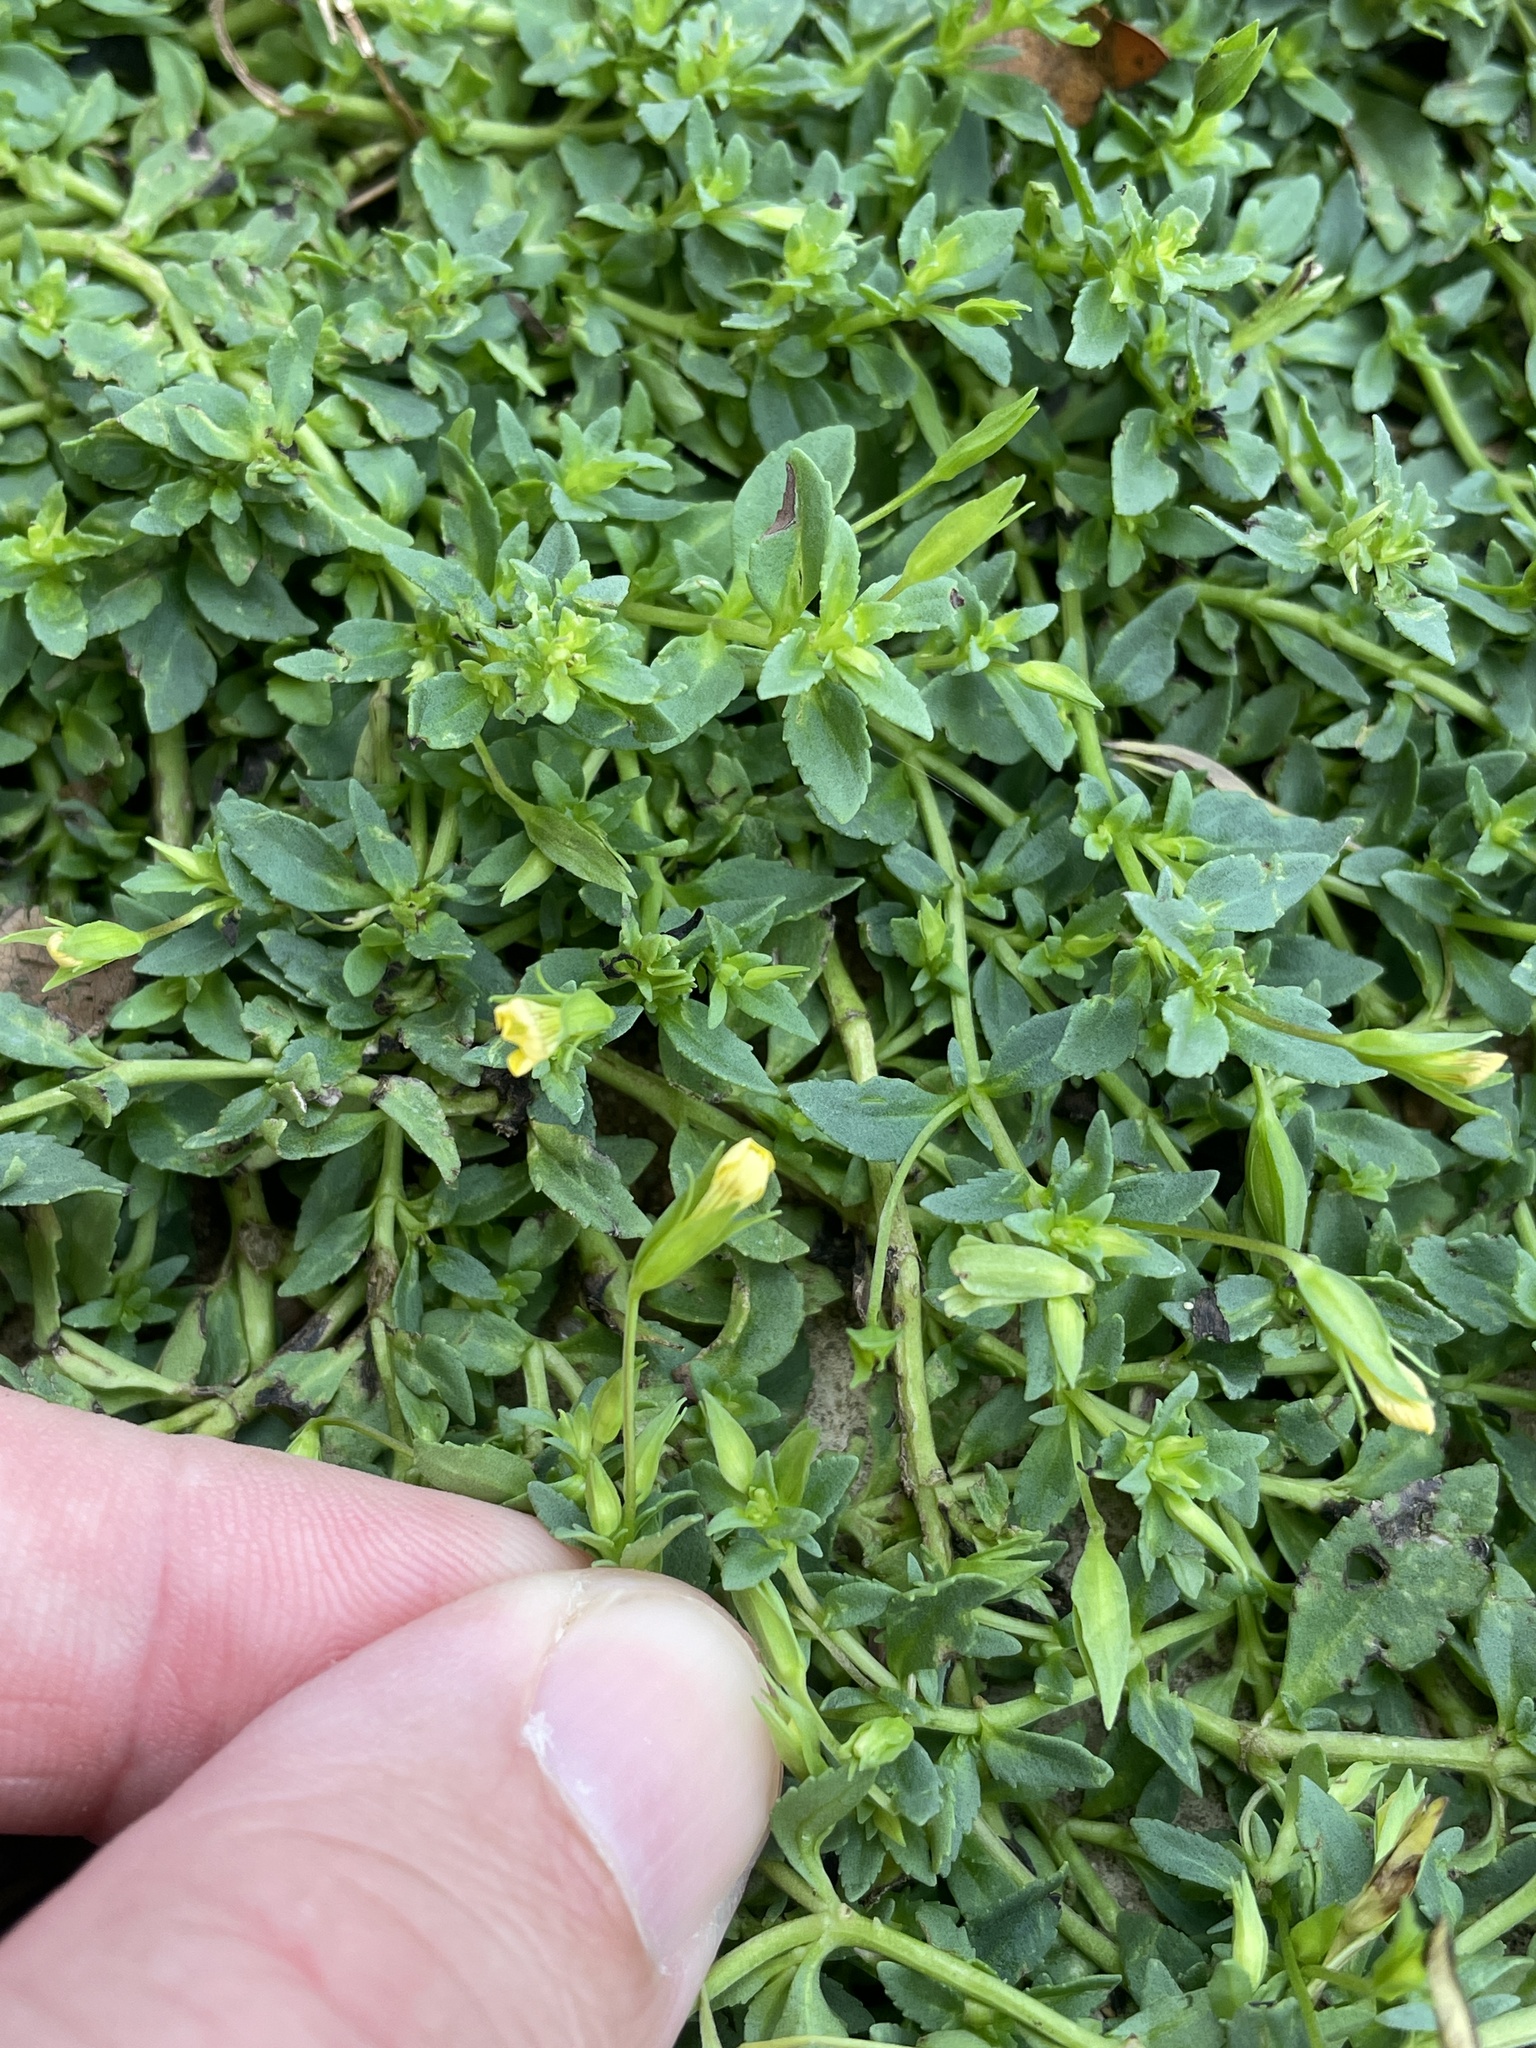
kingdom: Plantae
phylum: Tracheophyta
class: Magnoliopsida
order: Lamiales
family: Plantaginaceae
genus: Mecardonia
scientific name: Mecardonia procumbens
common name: Baby jump-up
